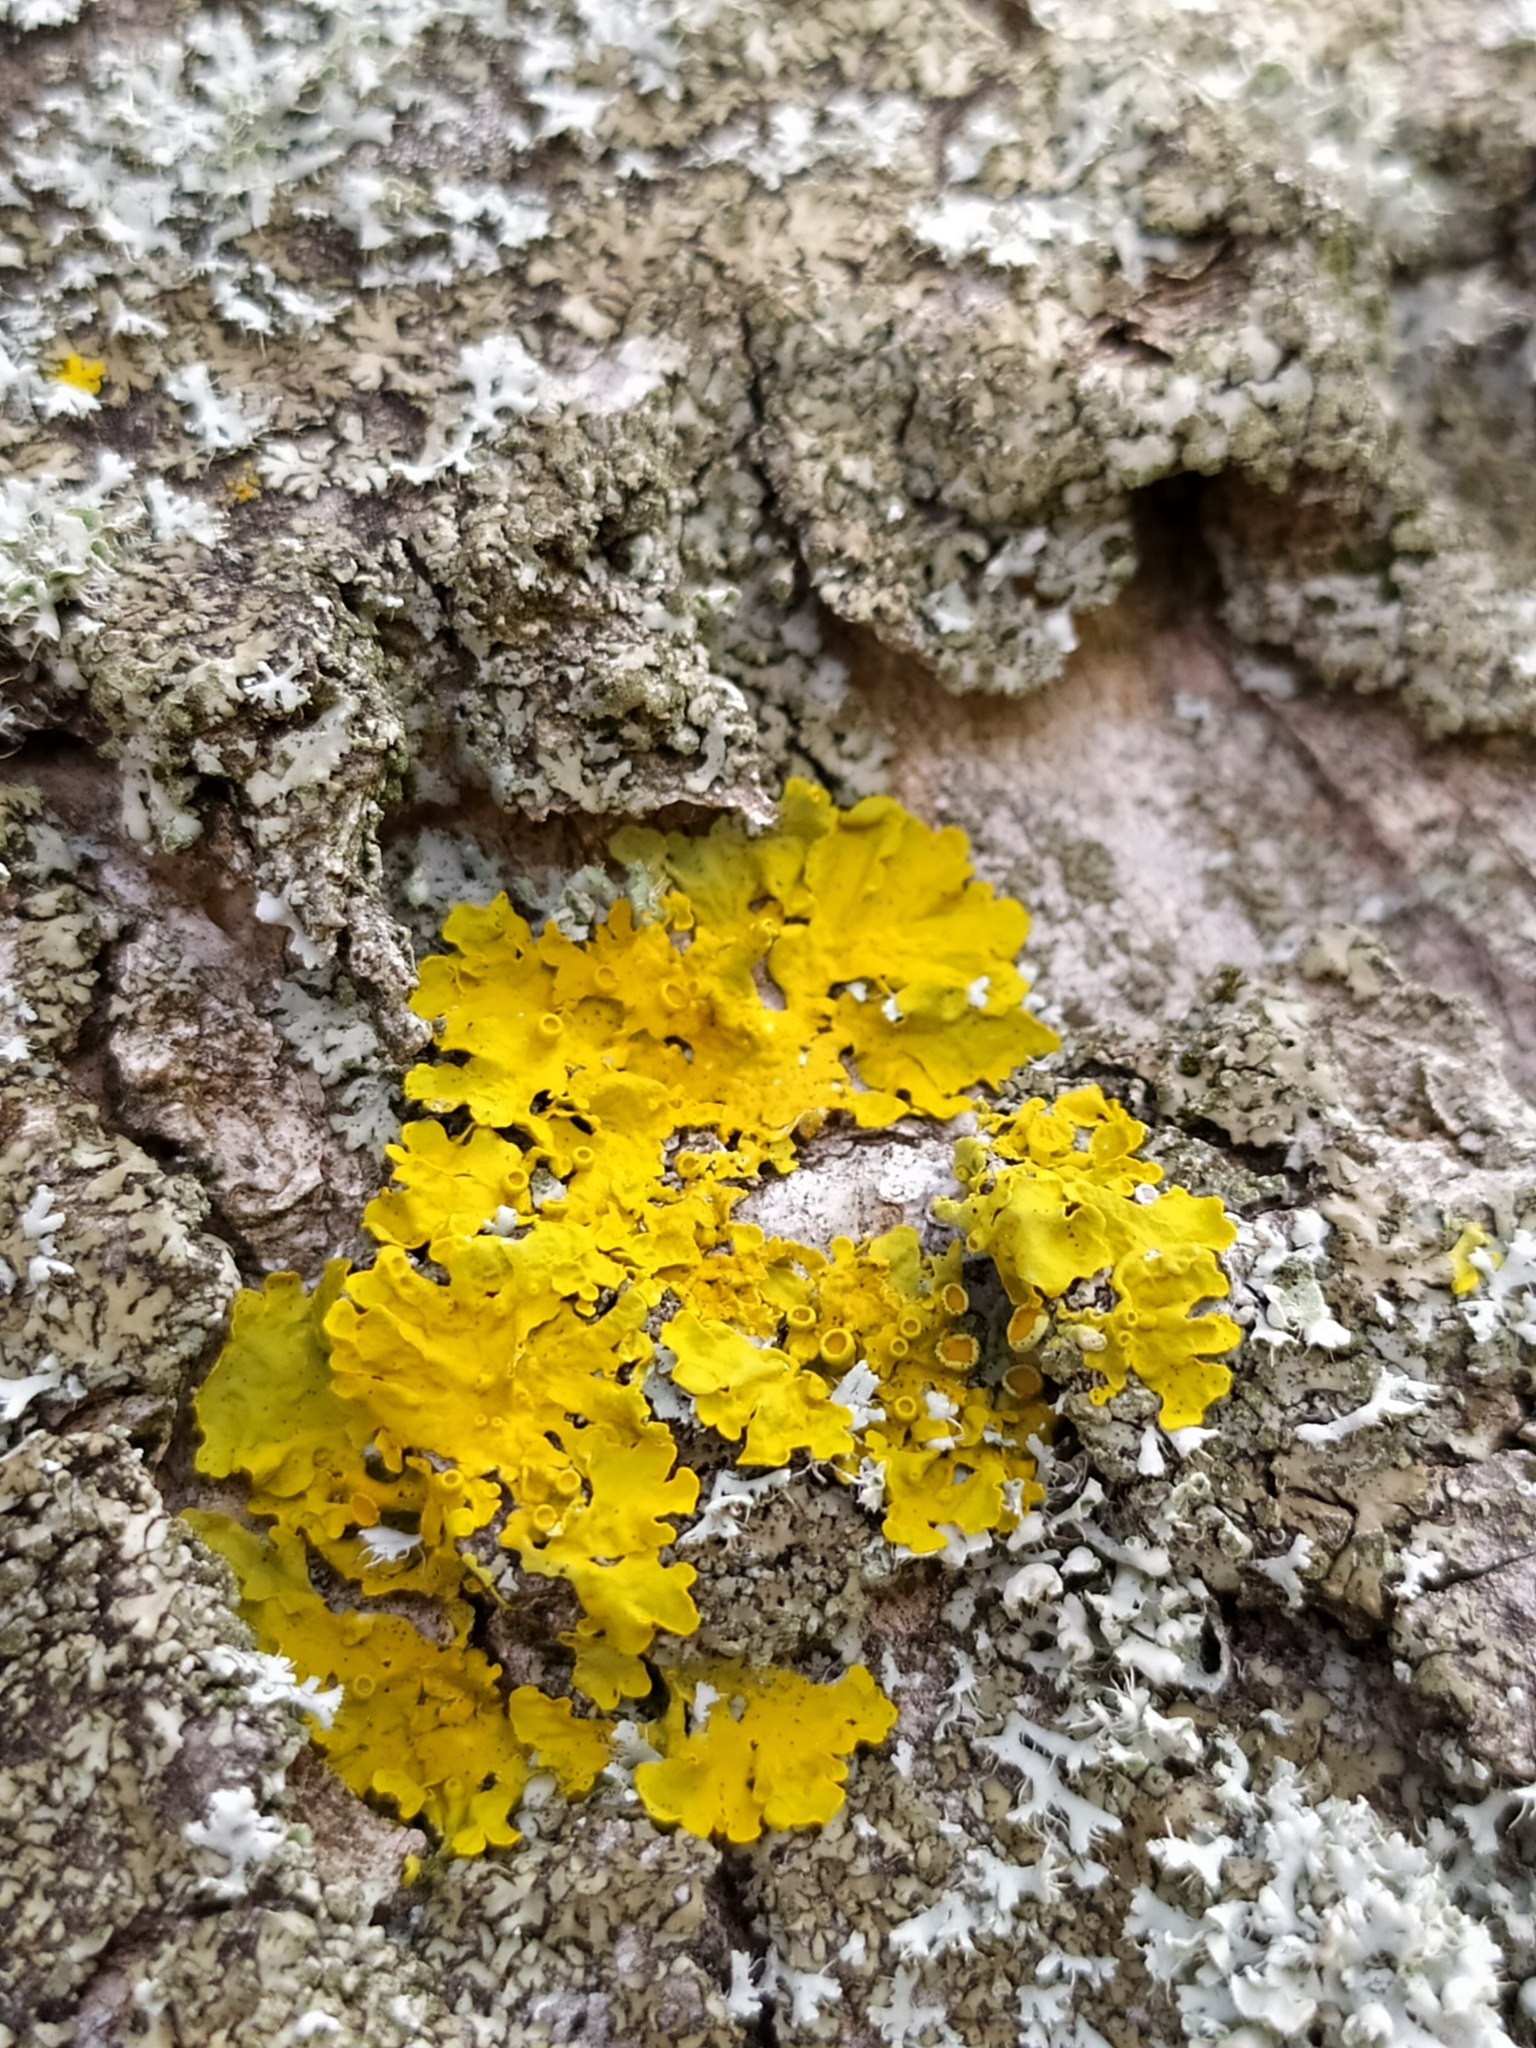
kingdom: Fungi
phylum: Ascomycota
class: Lecanoromycetes
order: Teloschistales
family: Teloschistaceae
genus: Xanthoria
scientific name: Xanthoria parietina
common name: Common orange lichen
